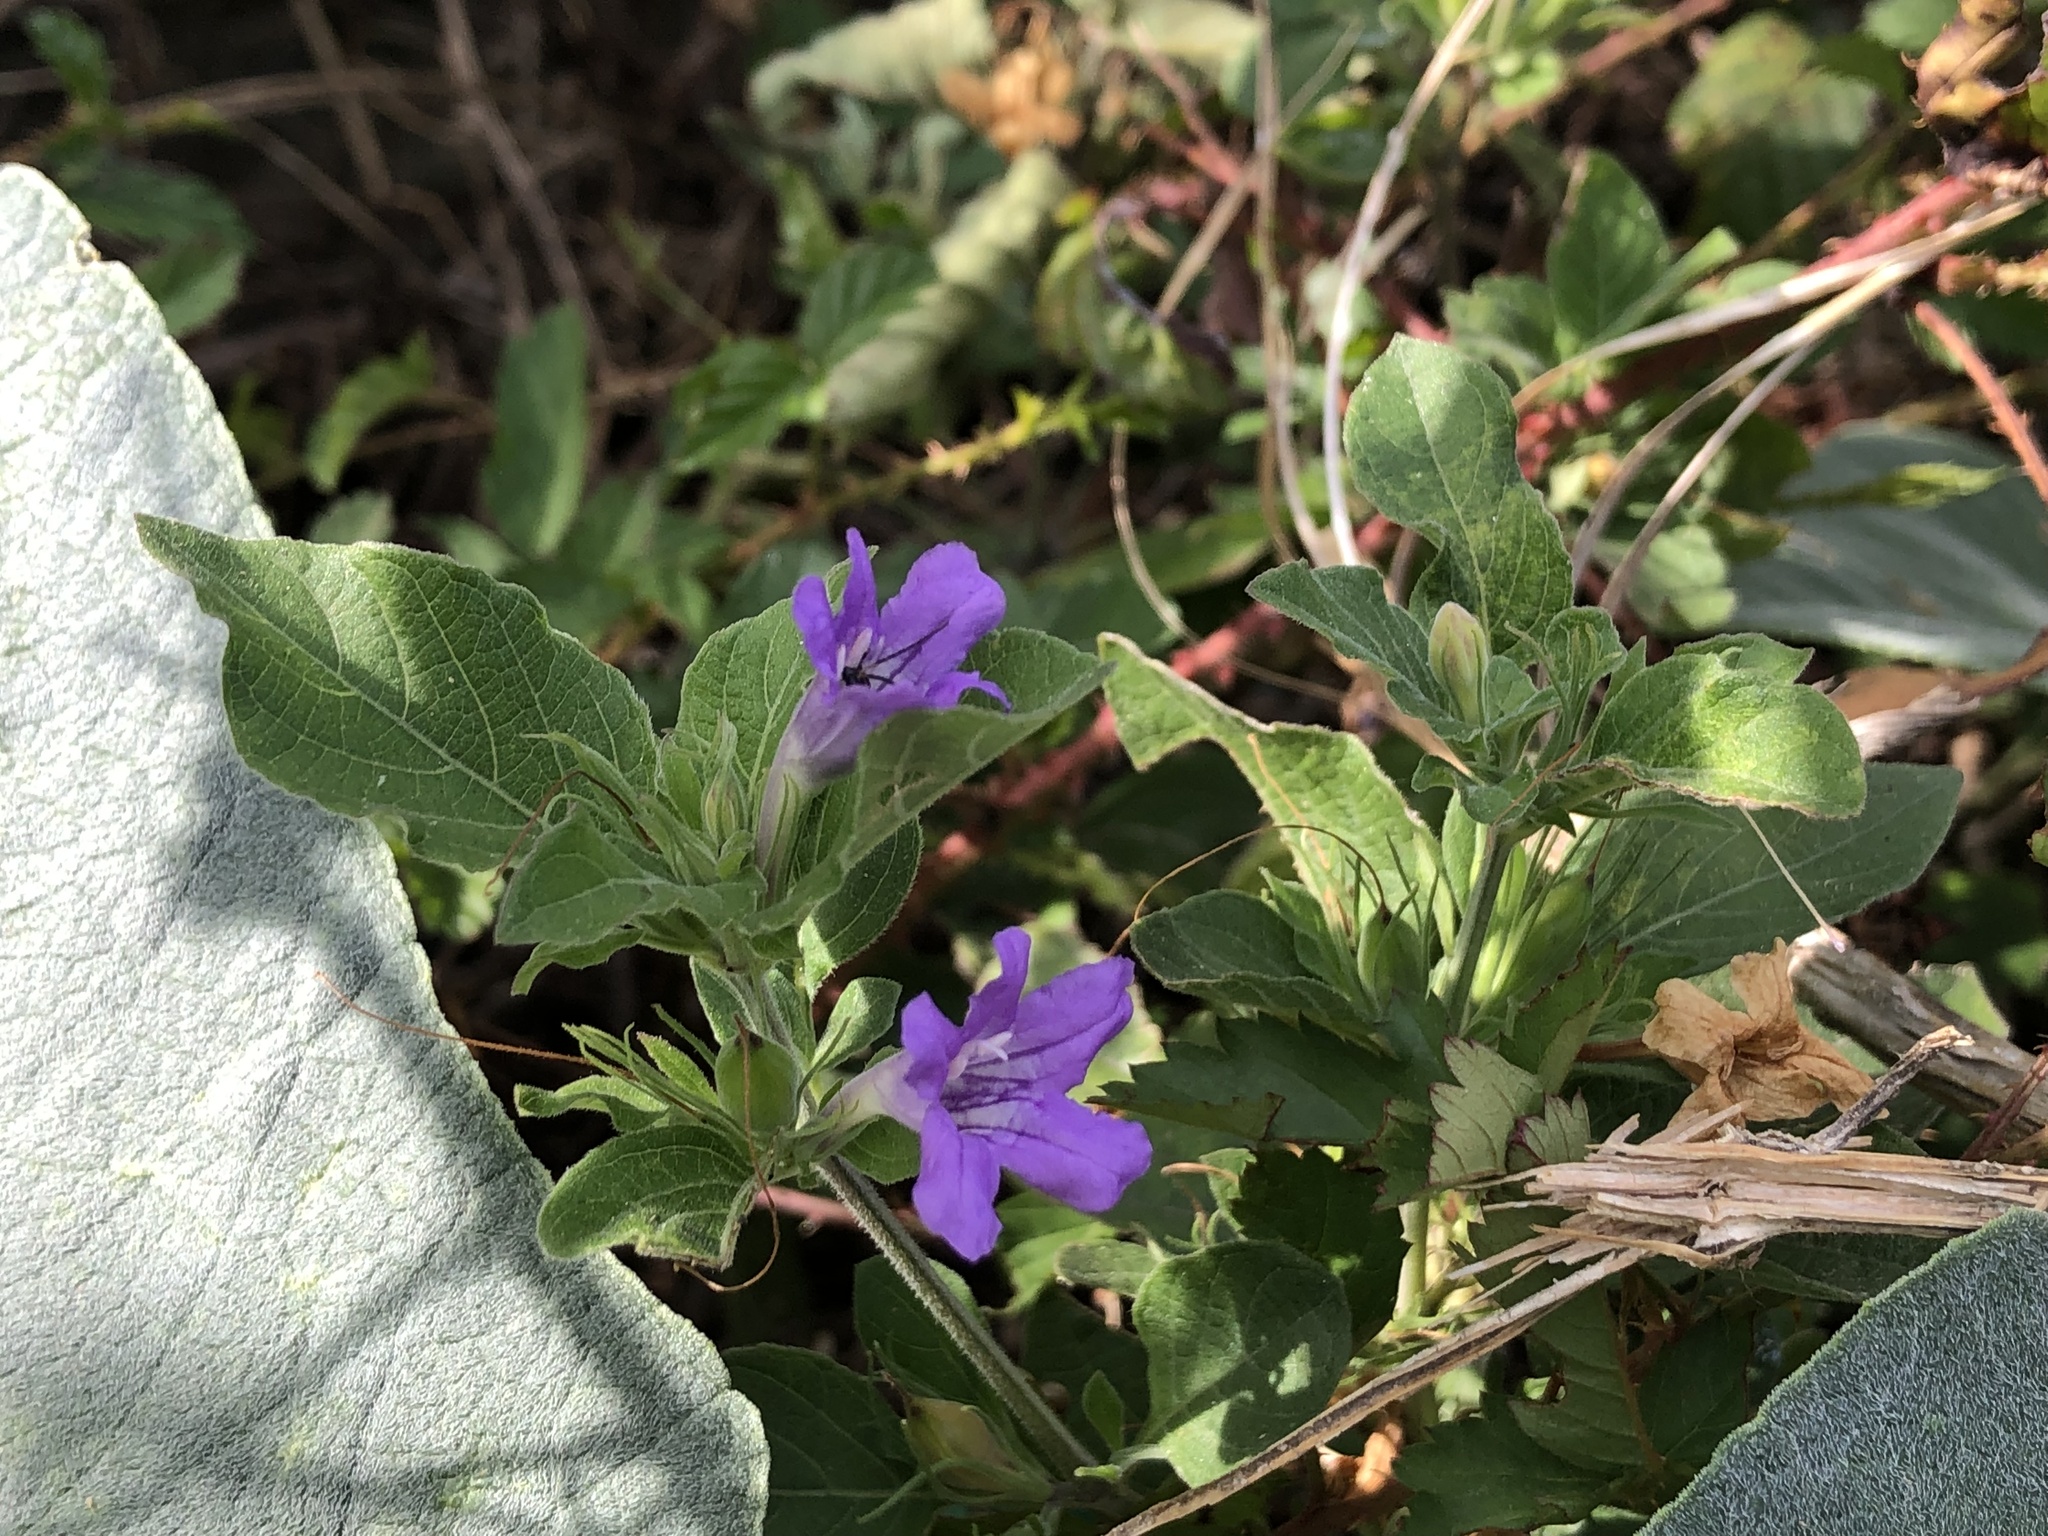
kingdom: Plantae
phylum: Tracheophyta
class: Magnoliopsida
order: Lamiales
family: Acanthaceae
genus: Ruellia
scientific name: Ruellia drummondiana
